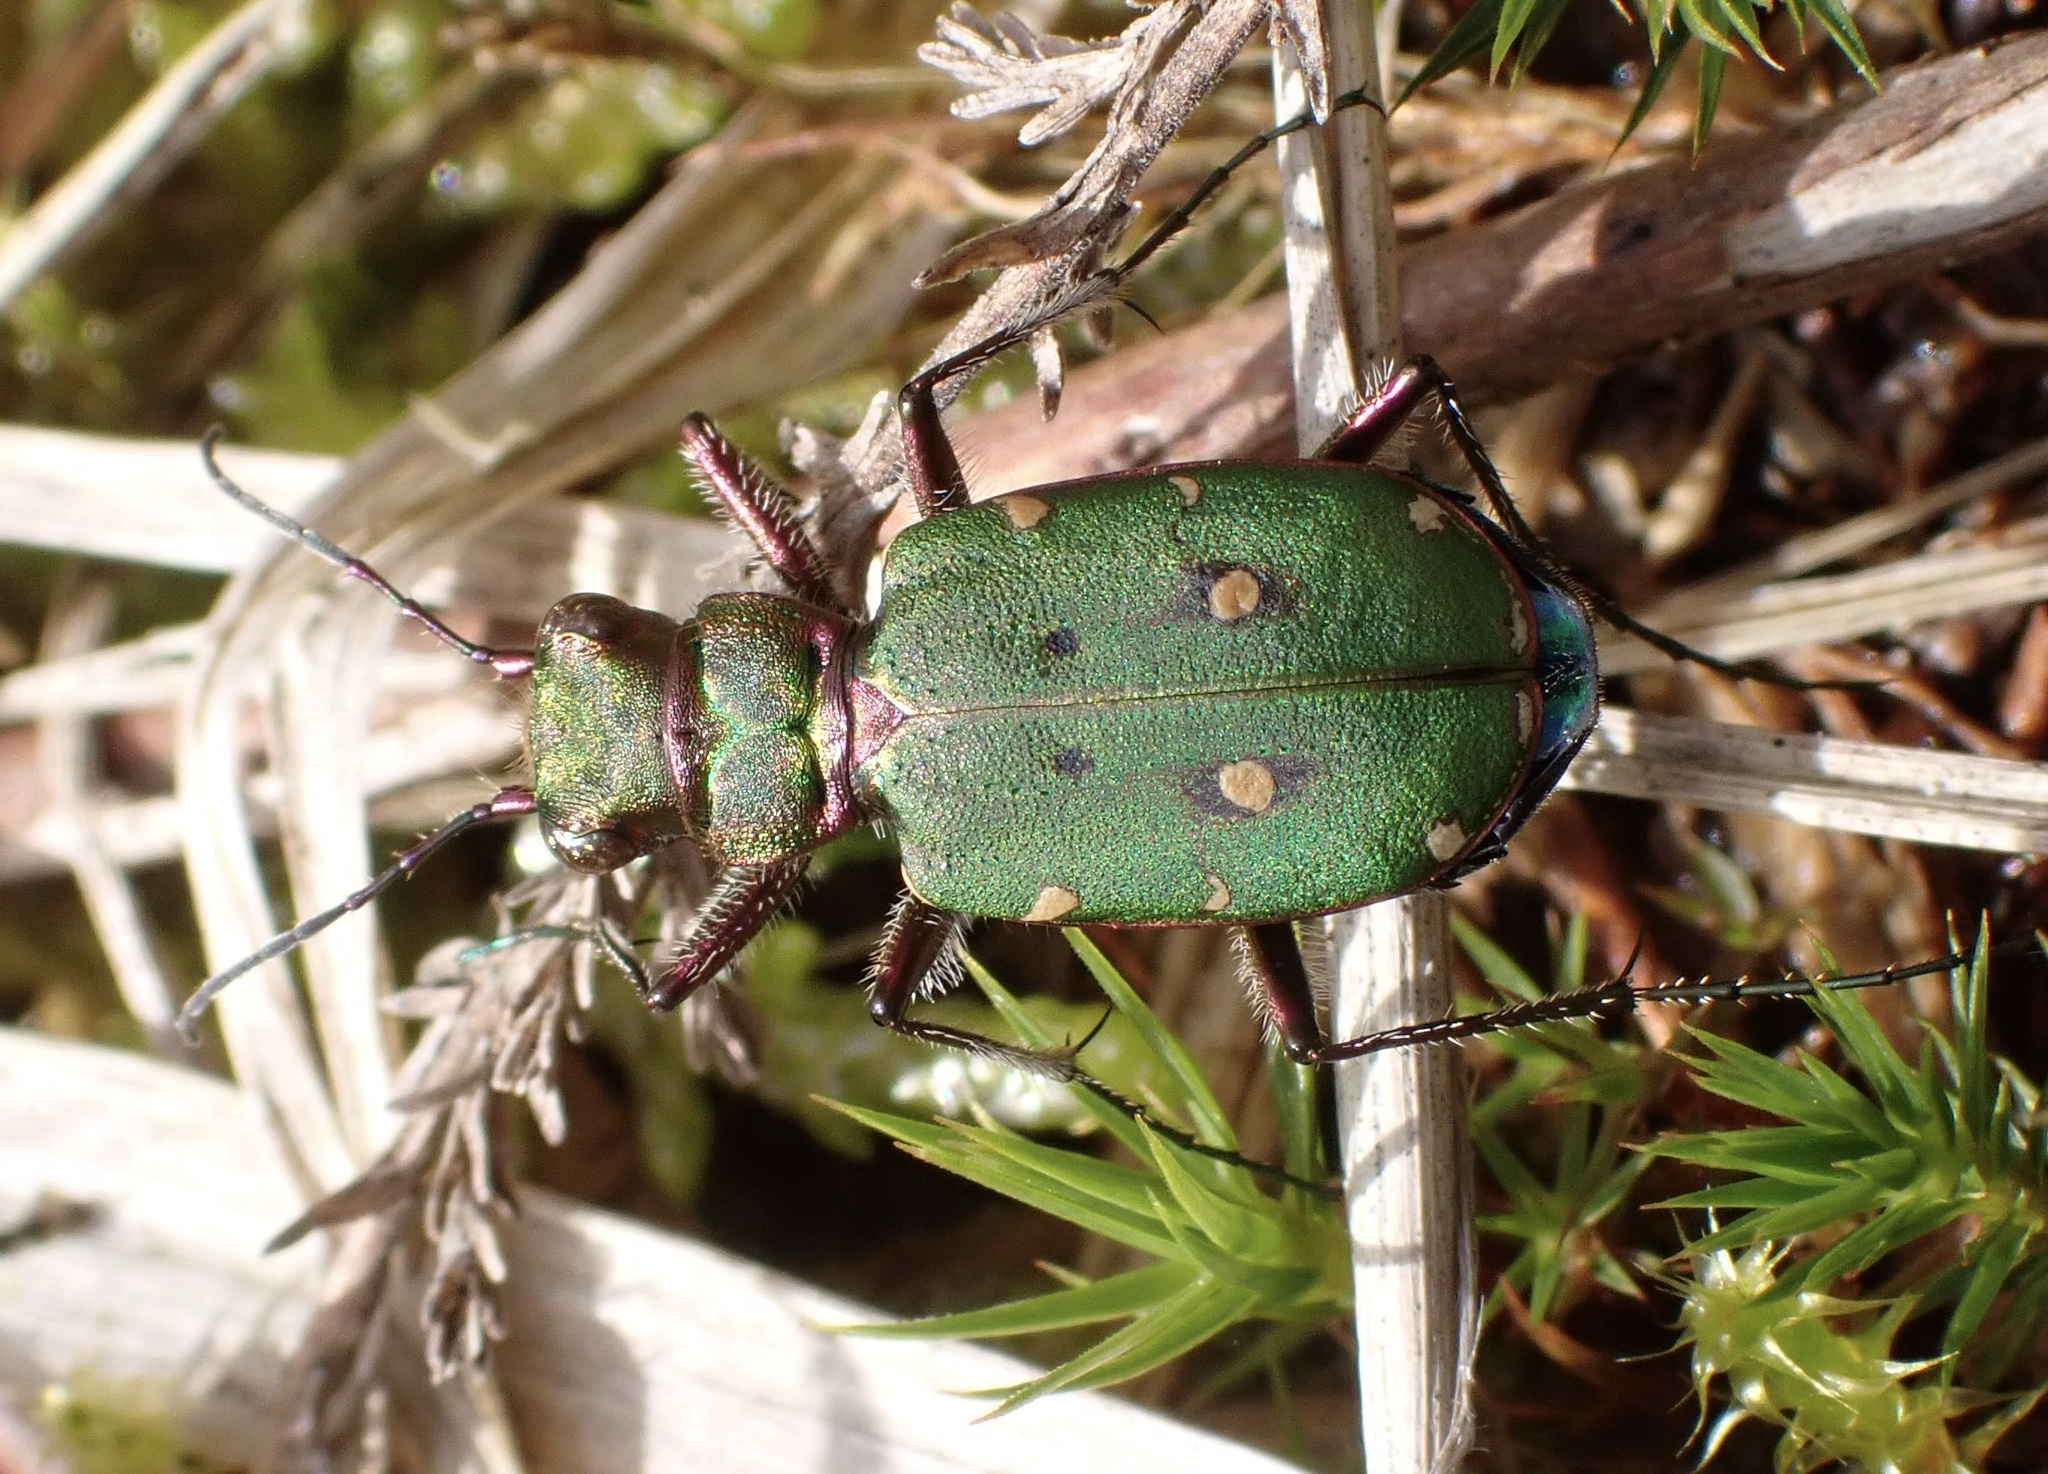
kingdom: Animalia
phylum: Arthropoda
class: Insecta
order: Coleoptera
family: Carabidae
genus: Cicindela
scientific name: Cicindela campestris
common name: Common tiger beetle
